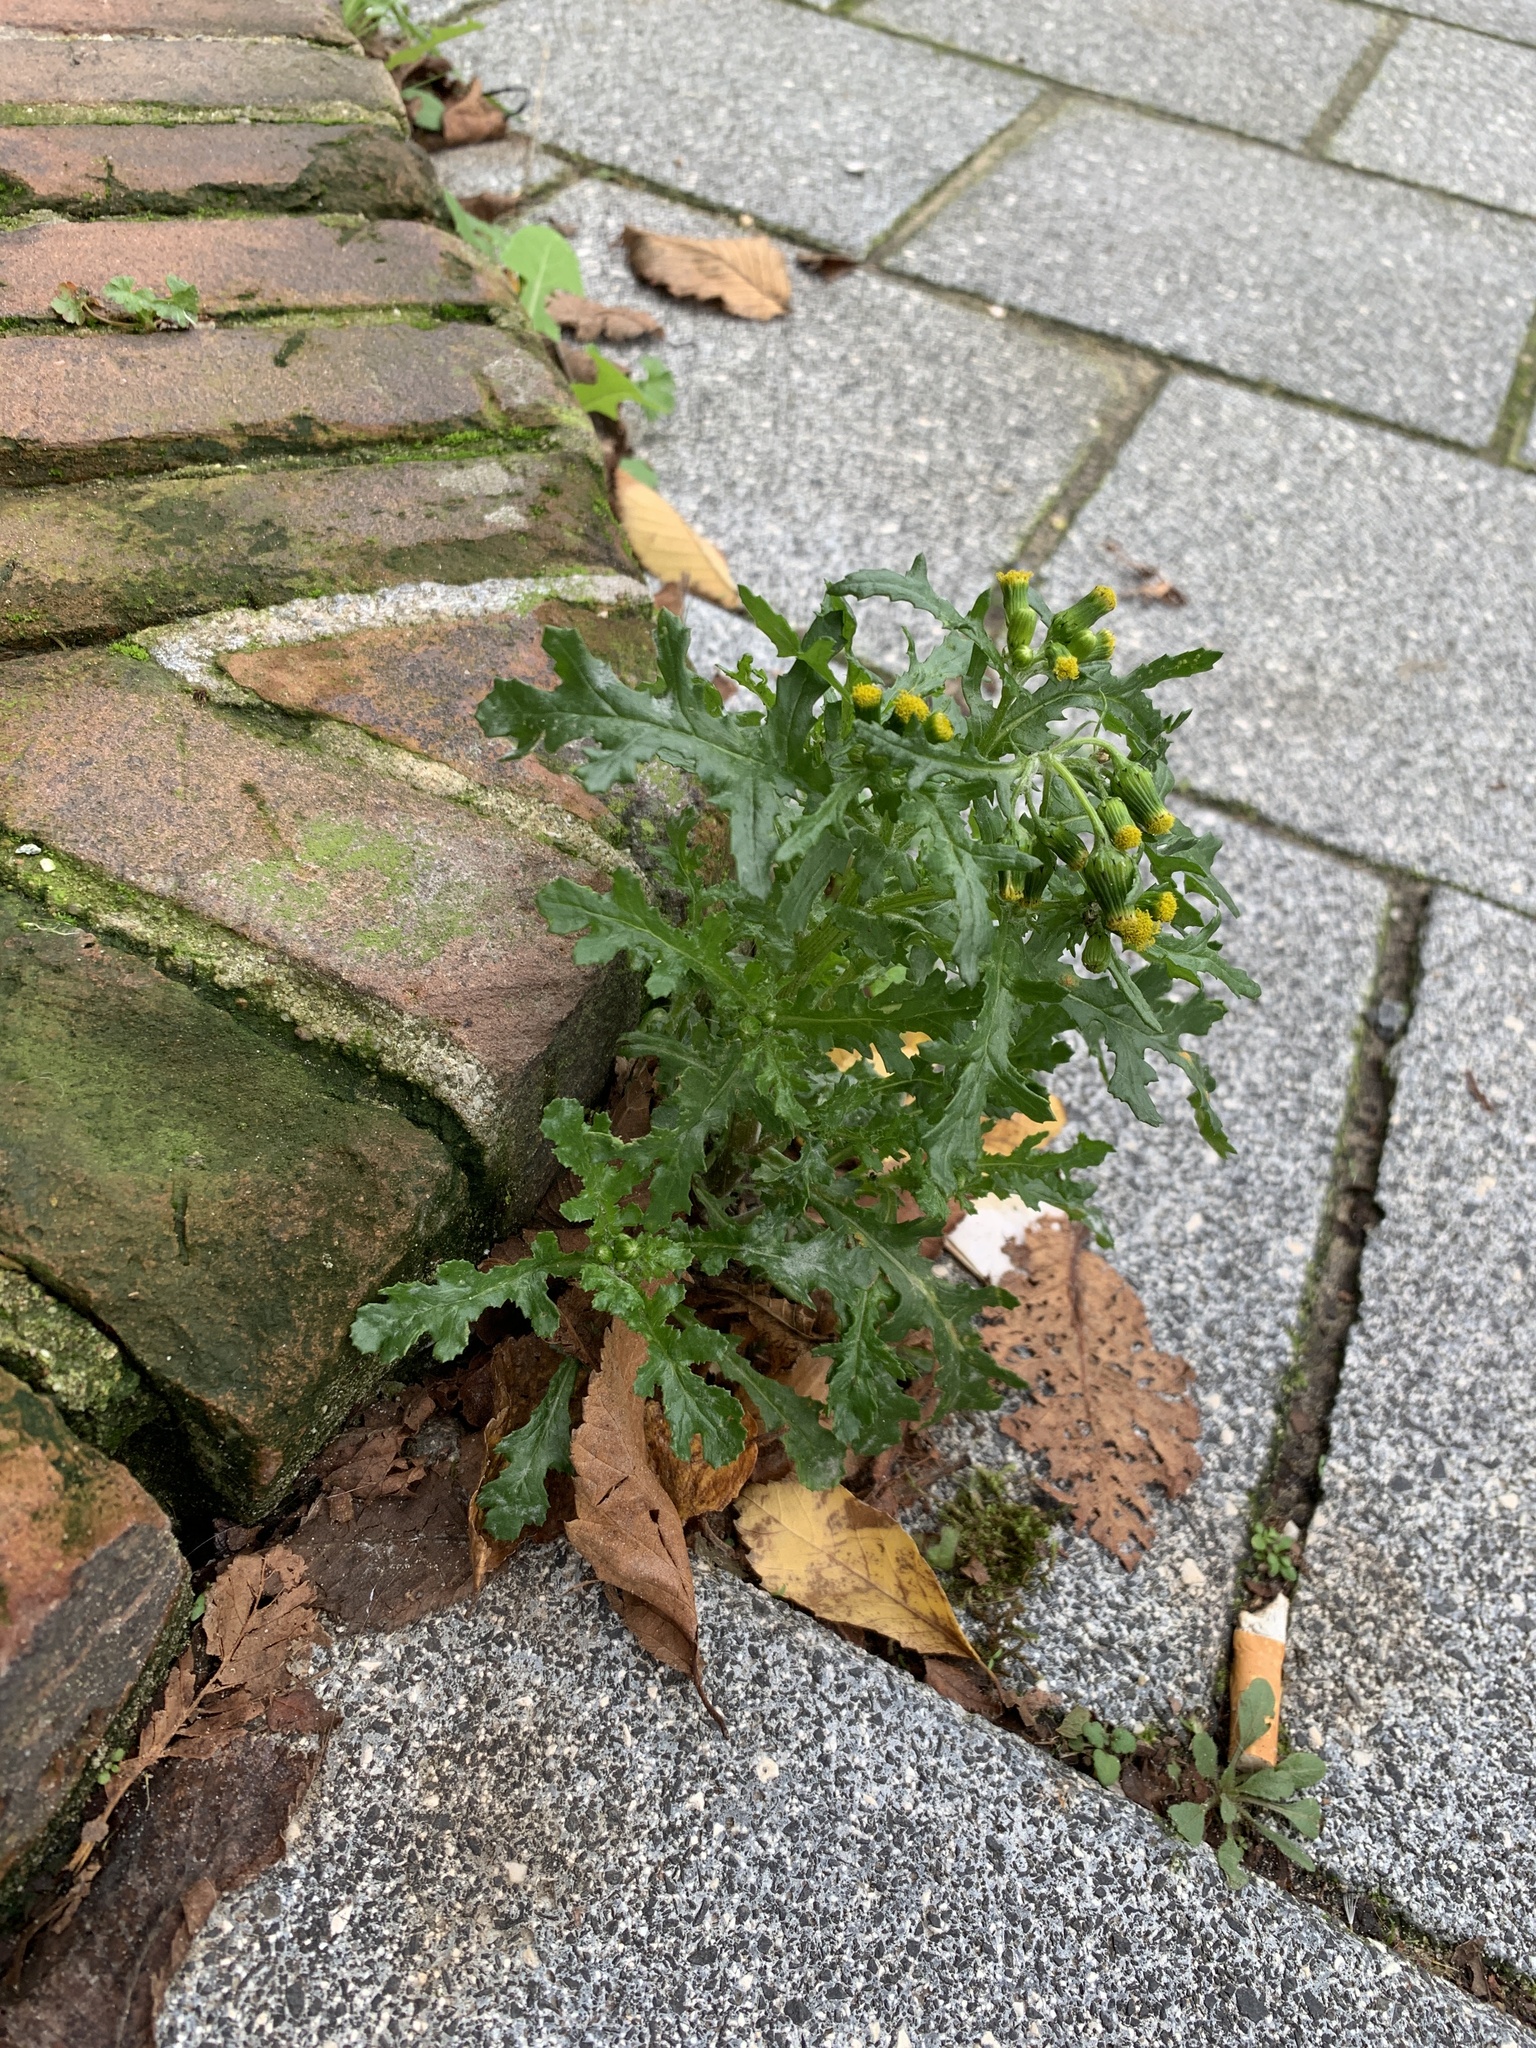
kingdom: Plantae
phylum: Tracheophyta
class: Magnoliopsida
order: Asterales
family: Asteraceae
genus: Senecio
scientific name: Senecio vulgaris
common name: Old-man-in-the-spring
